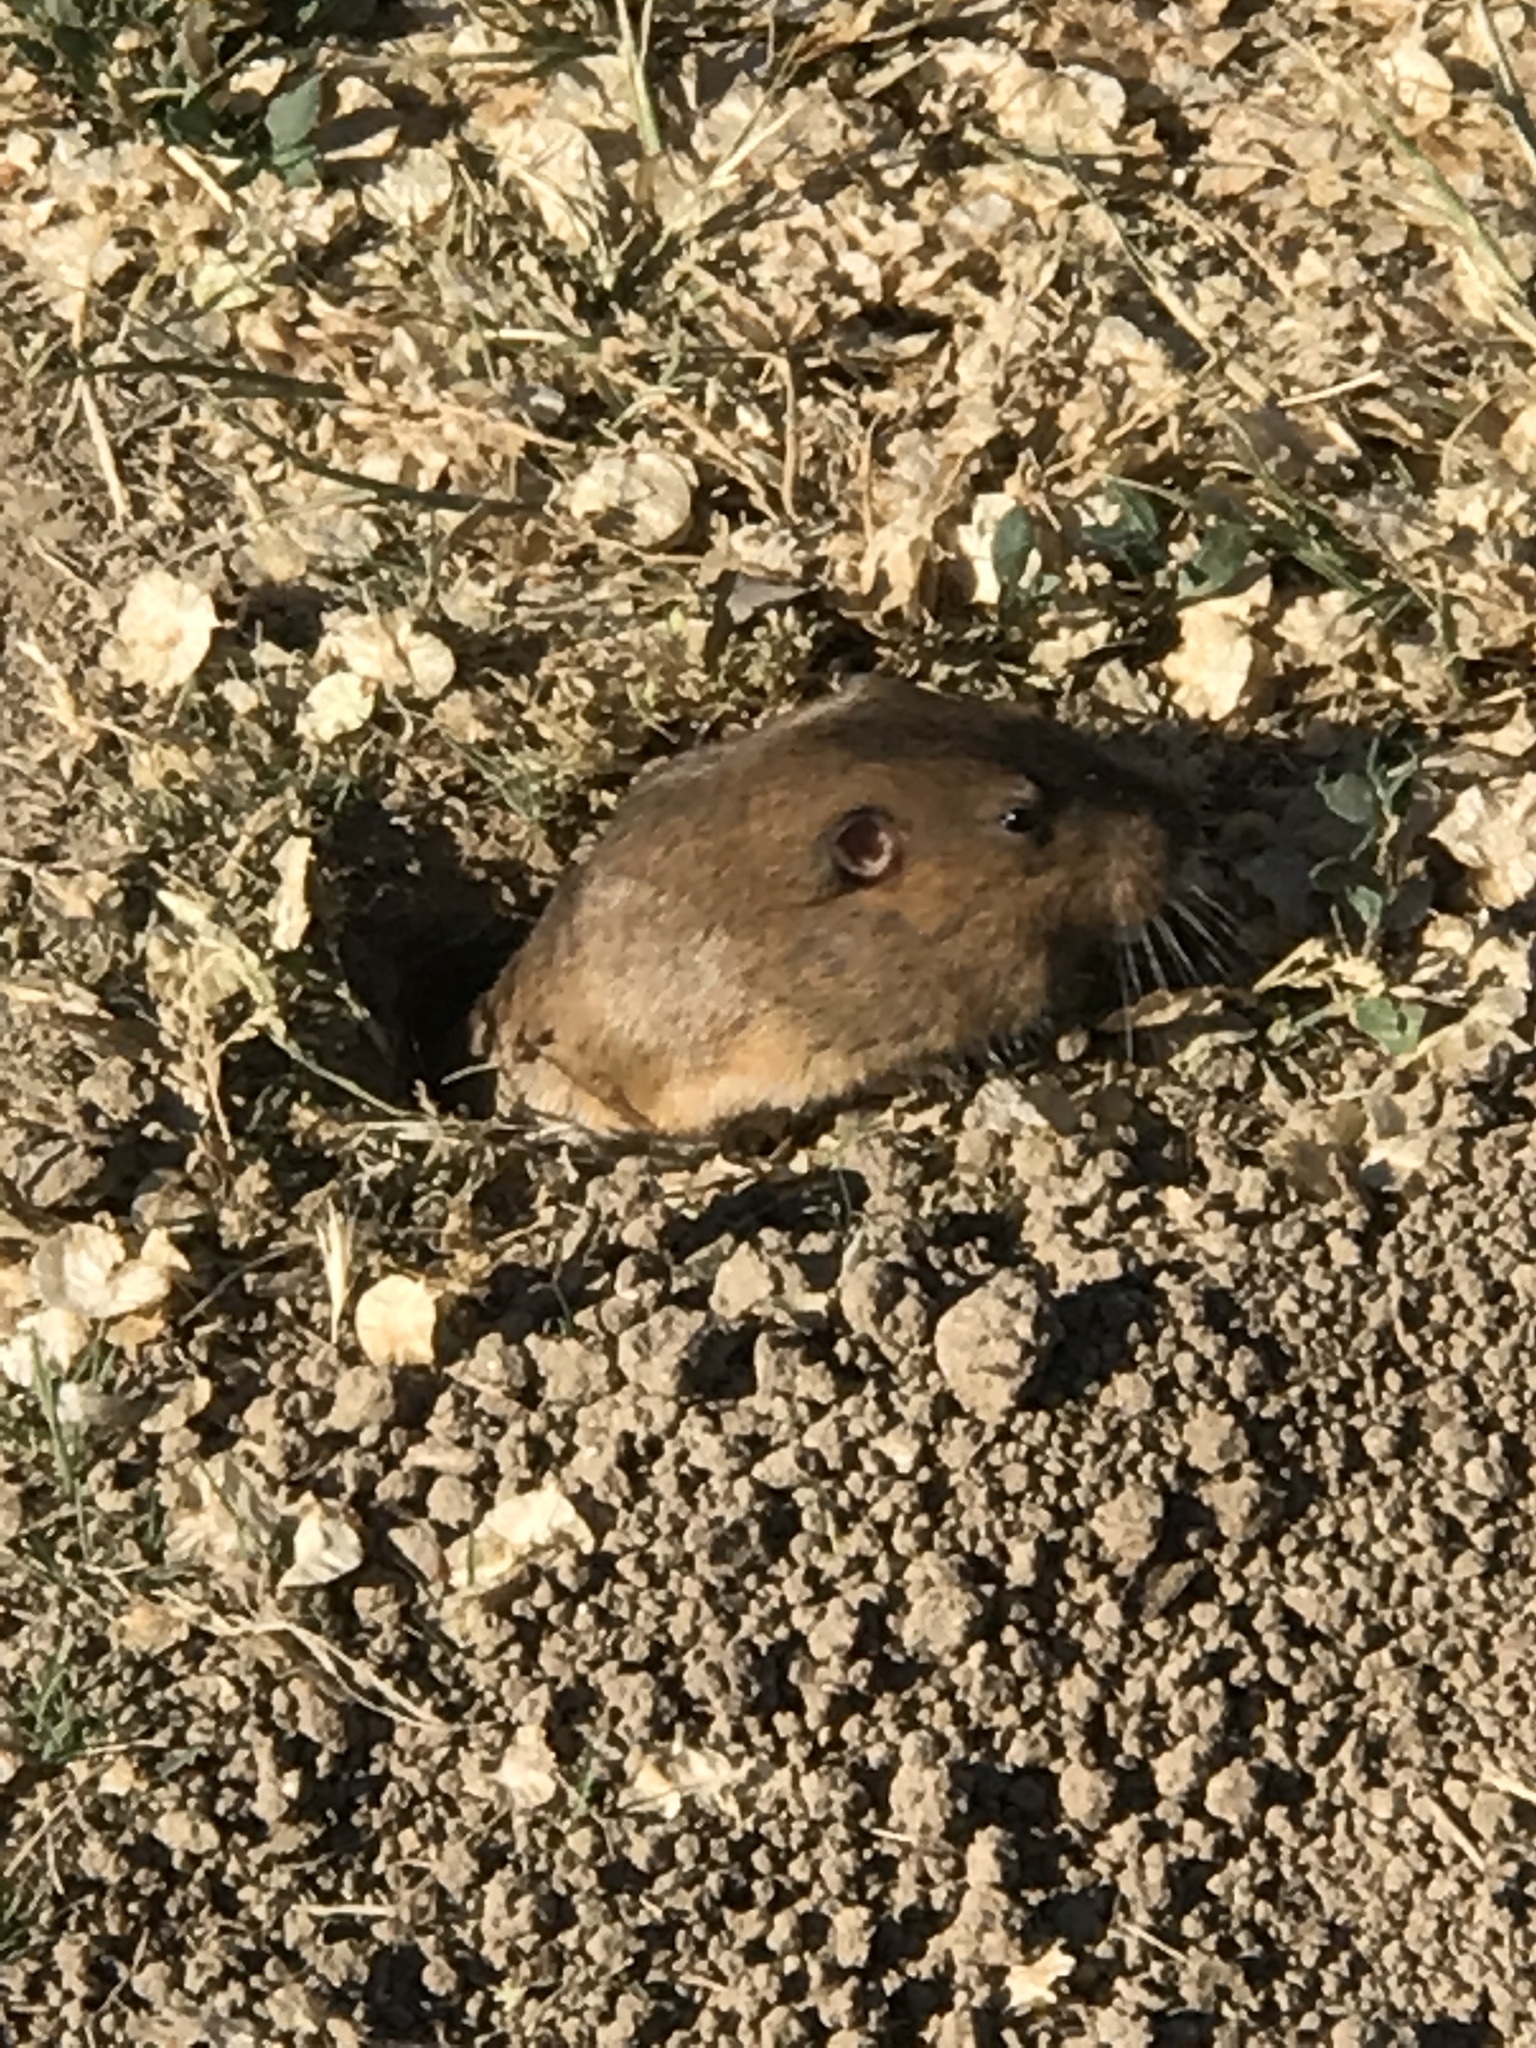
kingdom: Animalia
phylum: Chordata
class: Mammalia
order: Rodentia
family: Geomyidae
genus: Thomomys
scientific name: Thomomys bottae
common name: Botta's pocket gopher
